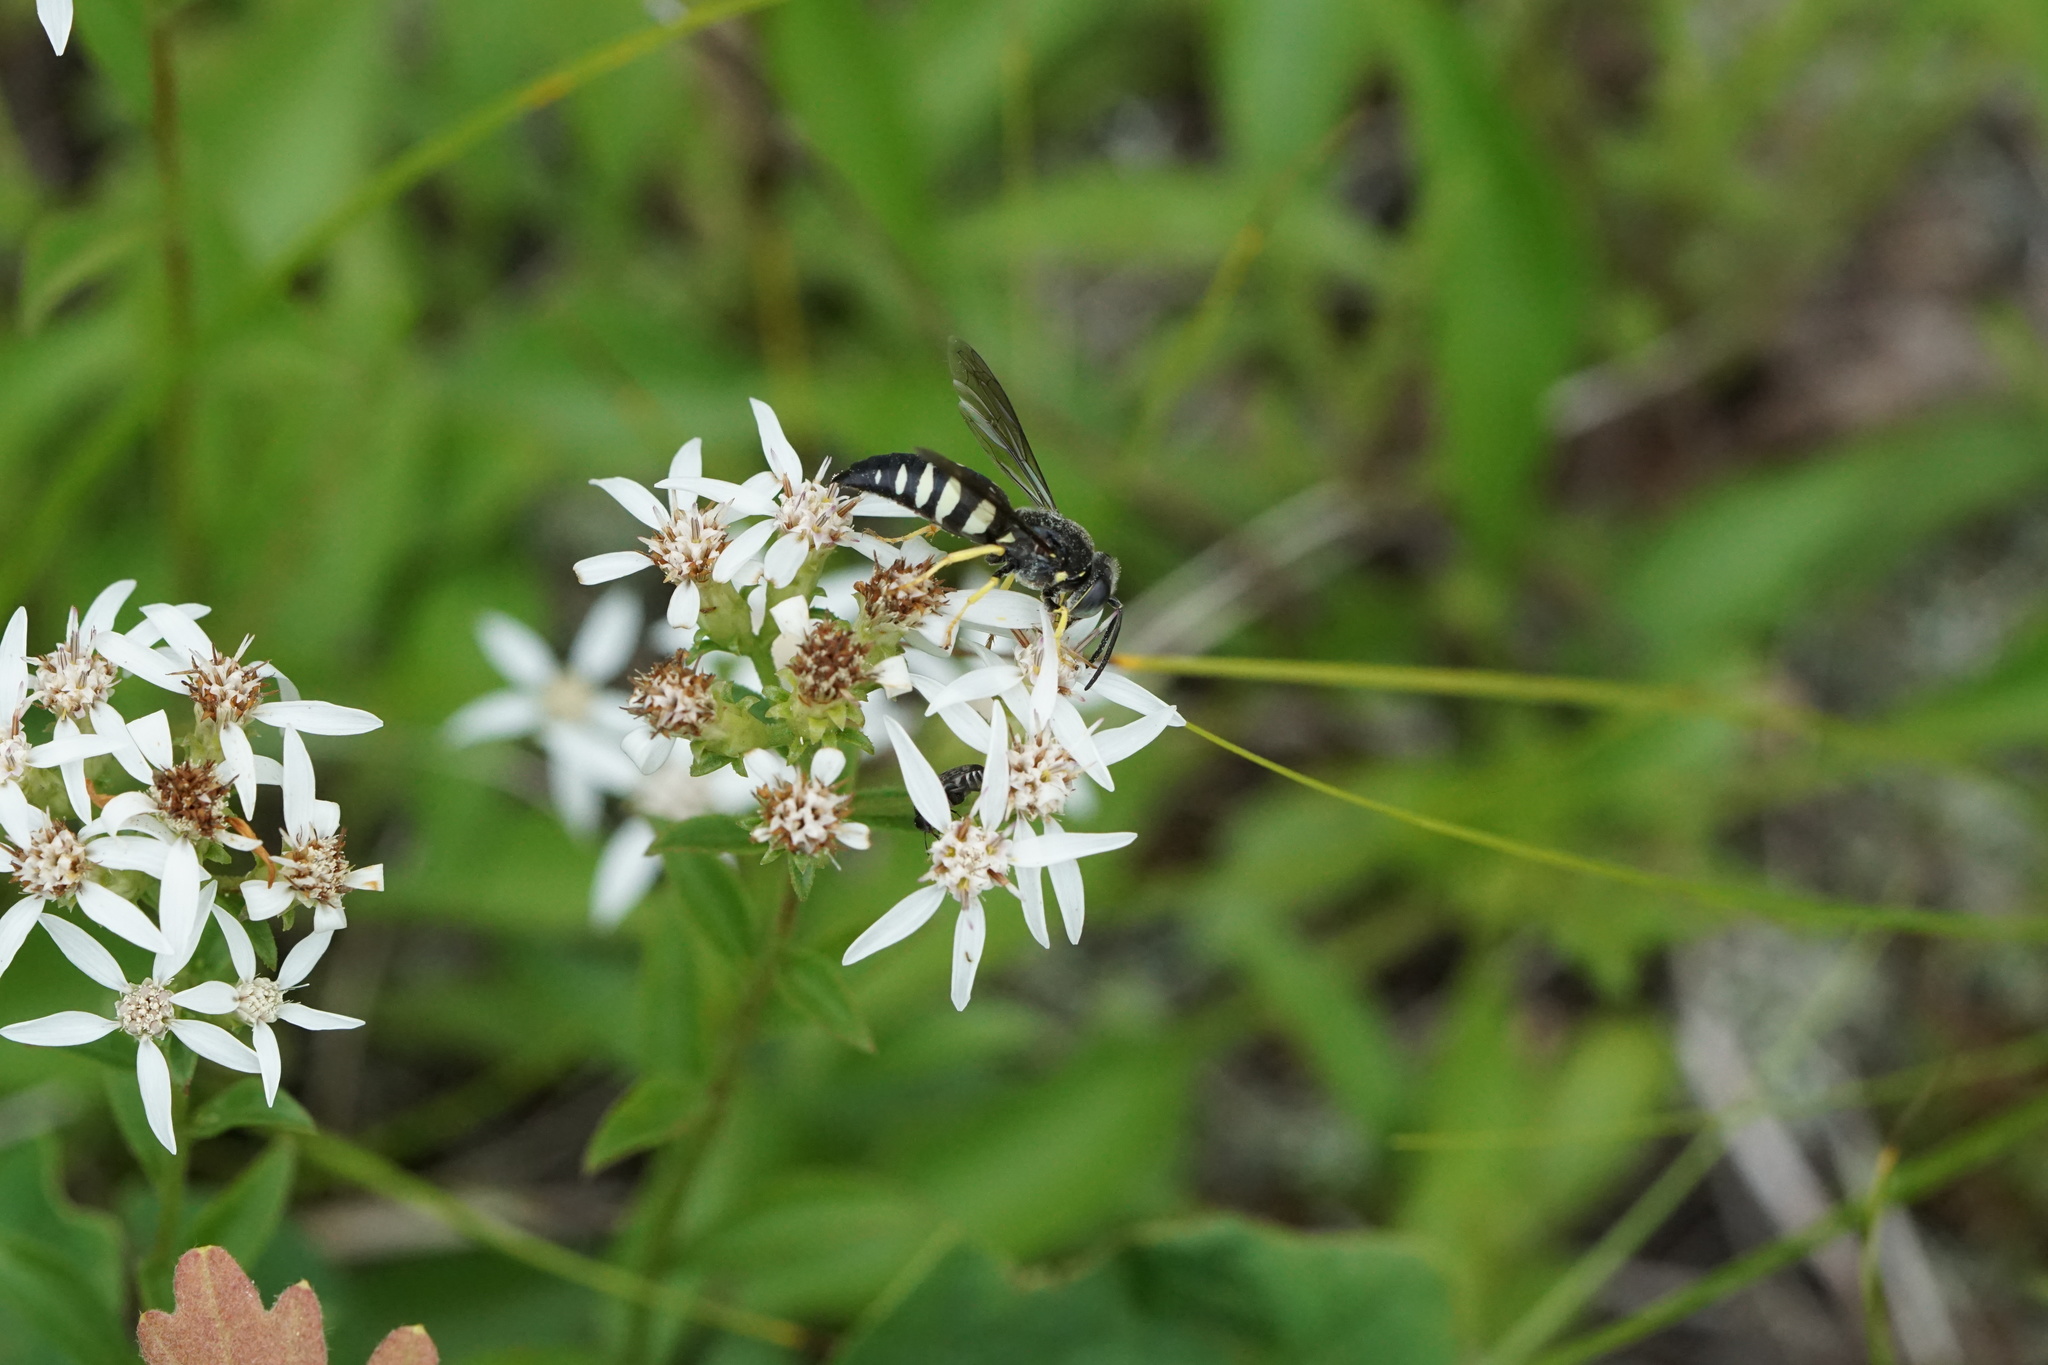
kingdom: Animalia
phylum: Arthropoda
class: Insecta
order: Hymenoptera
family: Crabronidae
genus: Bicyrtes
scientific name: Bicyrtes quadrifasciatus
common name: Four-banded stink bug hunter wasp
